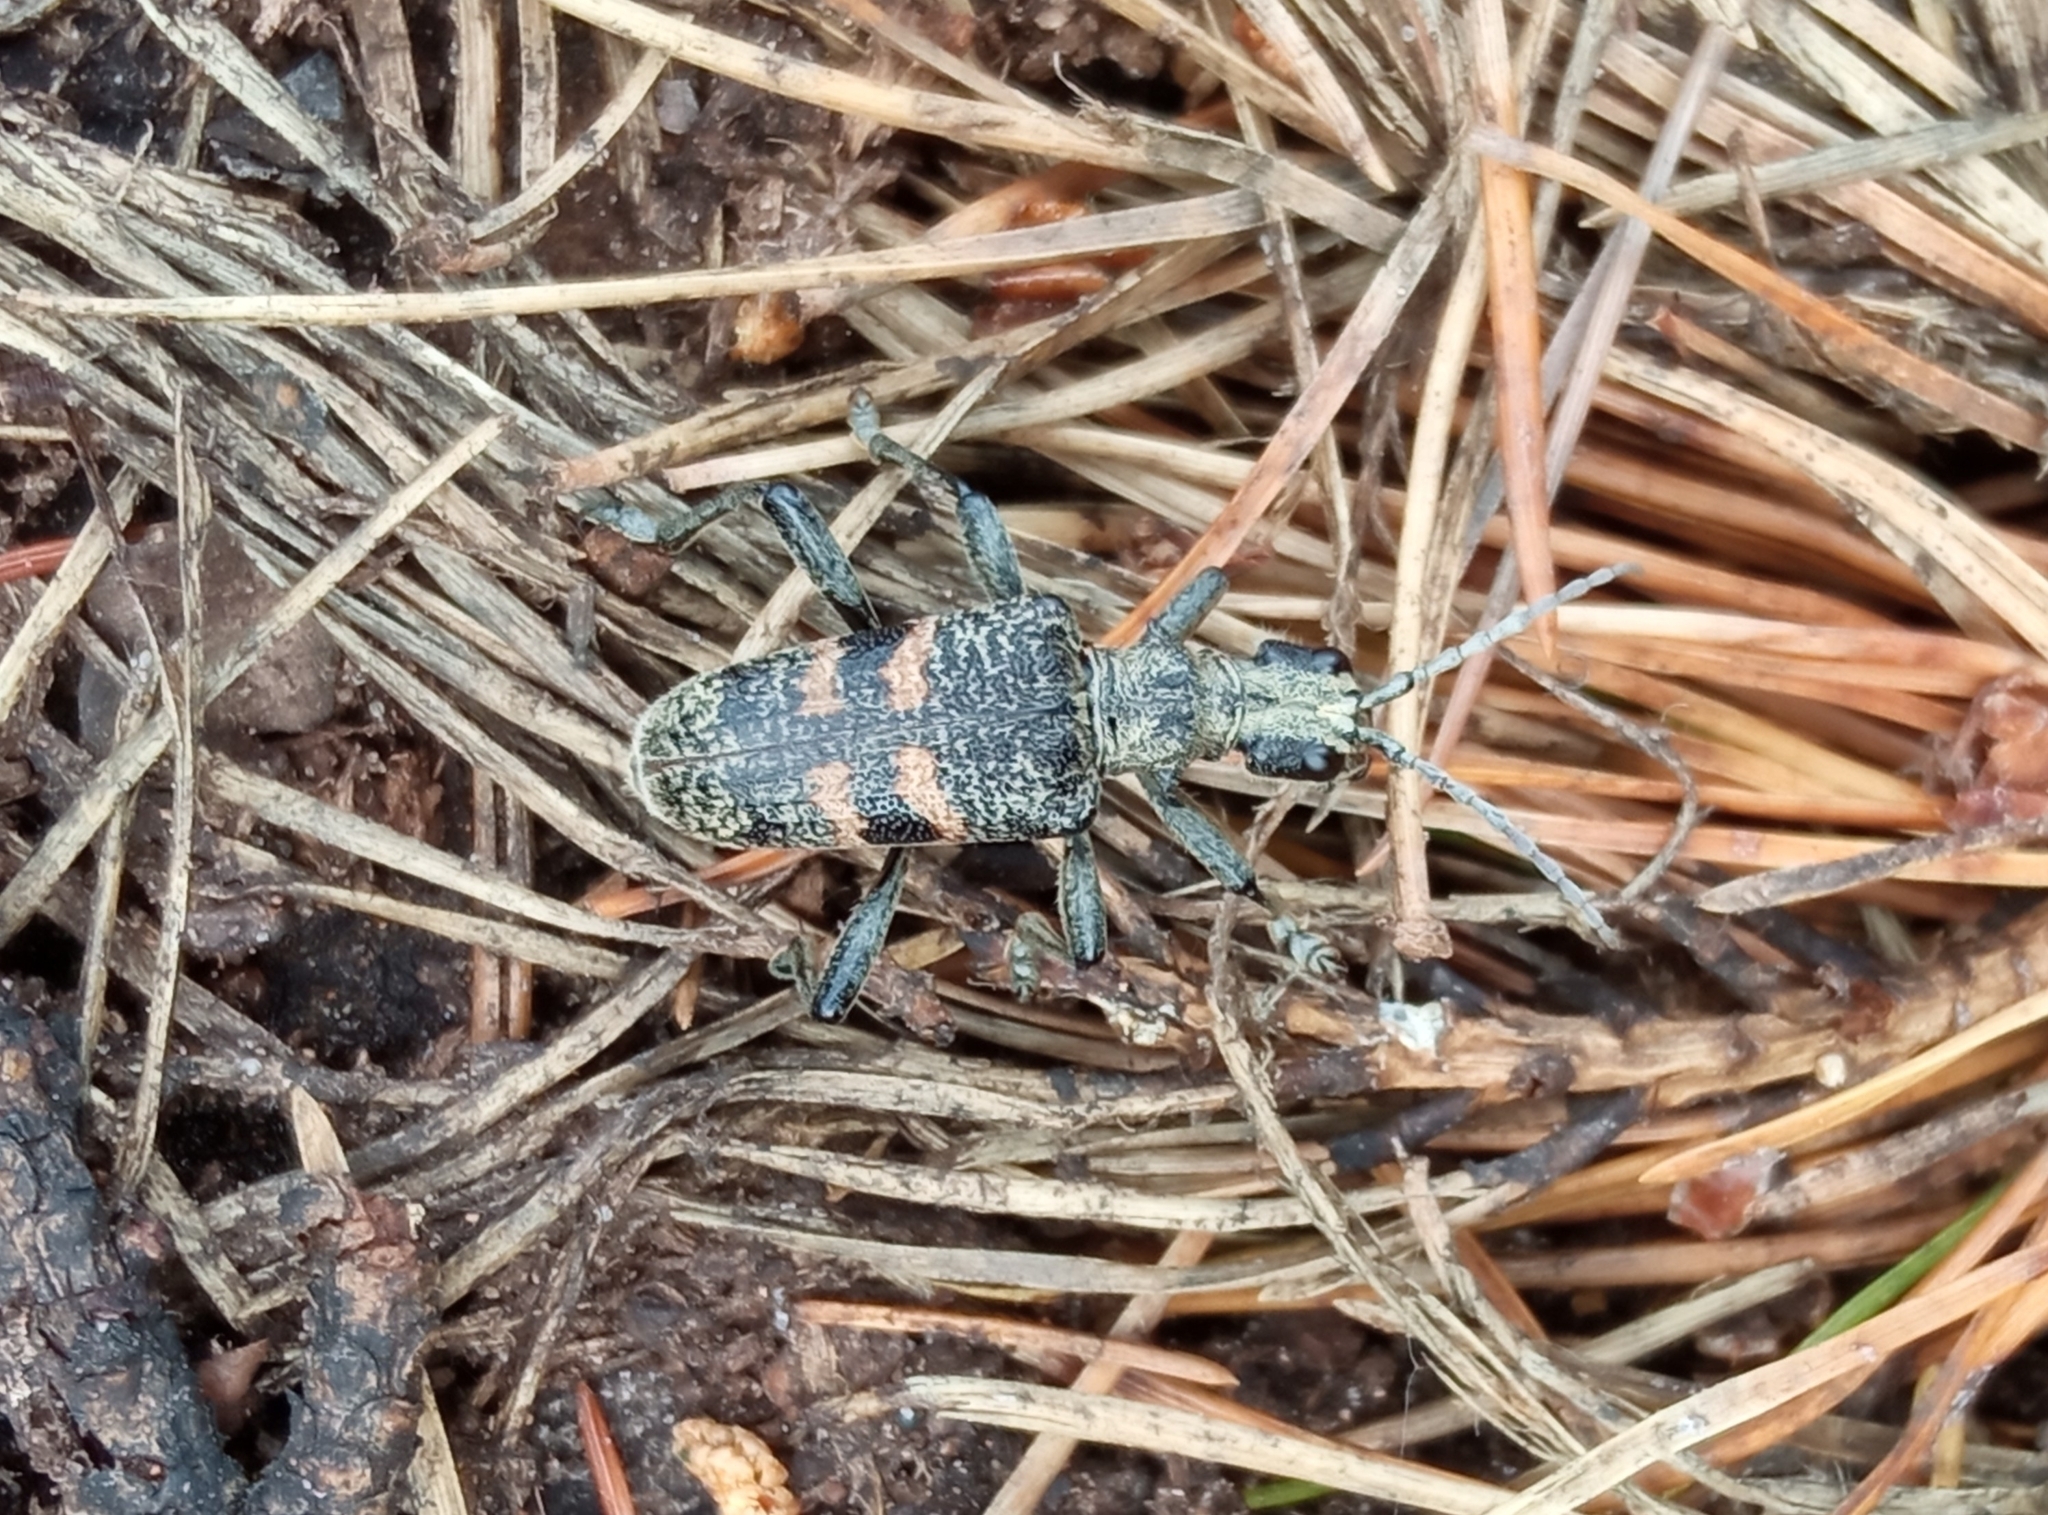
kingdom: Animalia
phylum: Arthropoda
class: Insecta
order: Coleoptera
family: Cerambycidae
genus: Rhagium
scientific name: Rhagium mordax
